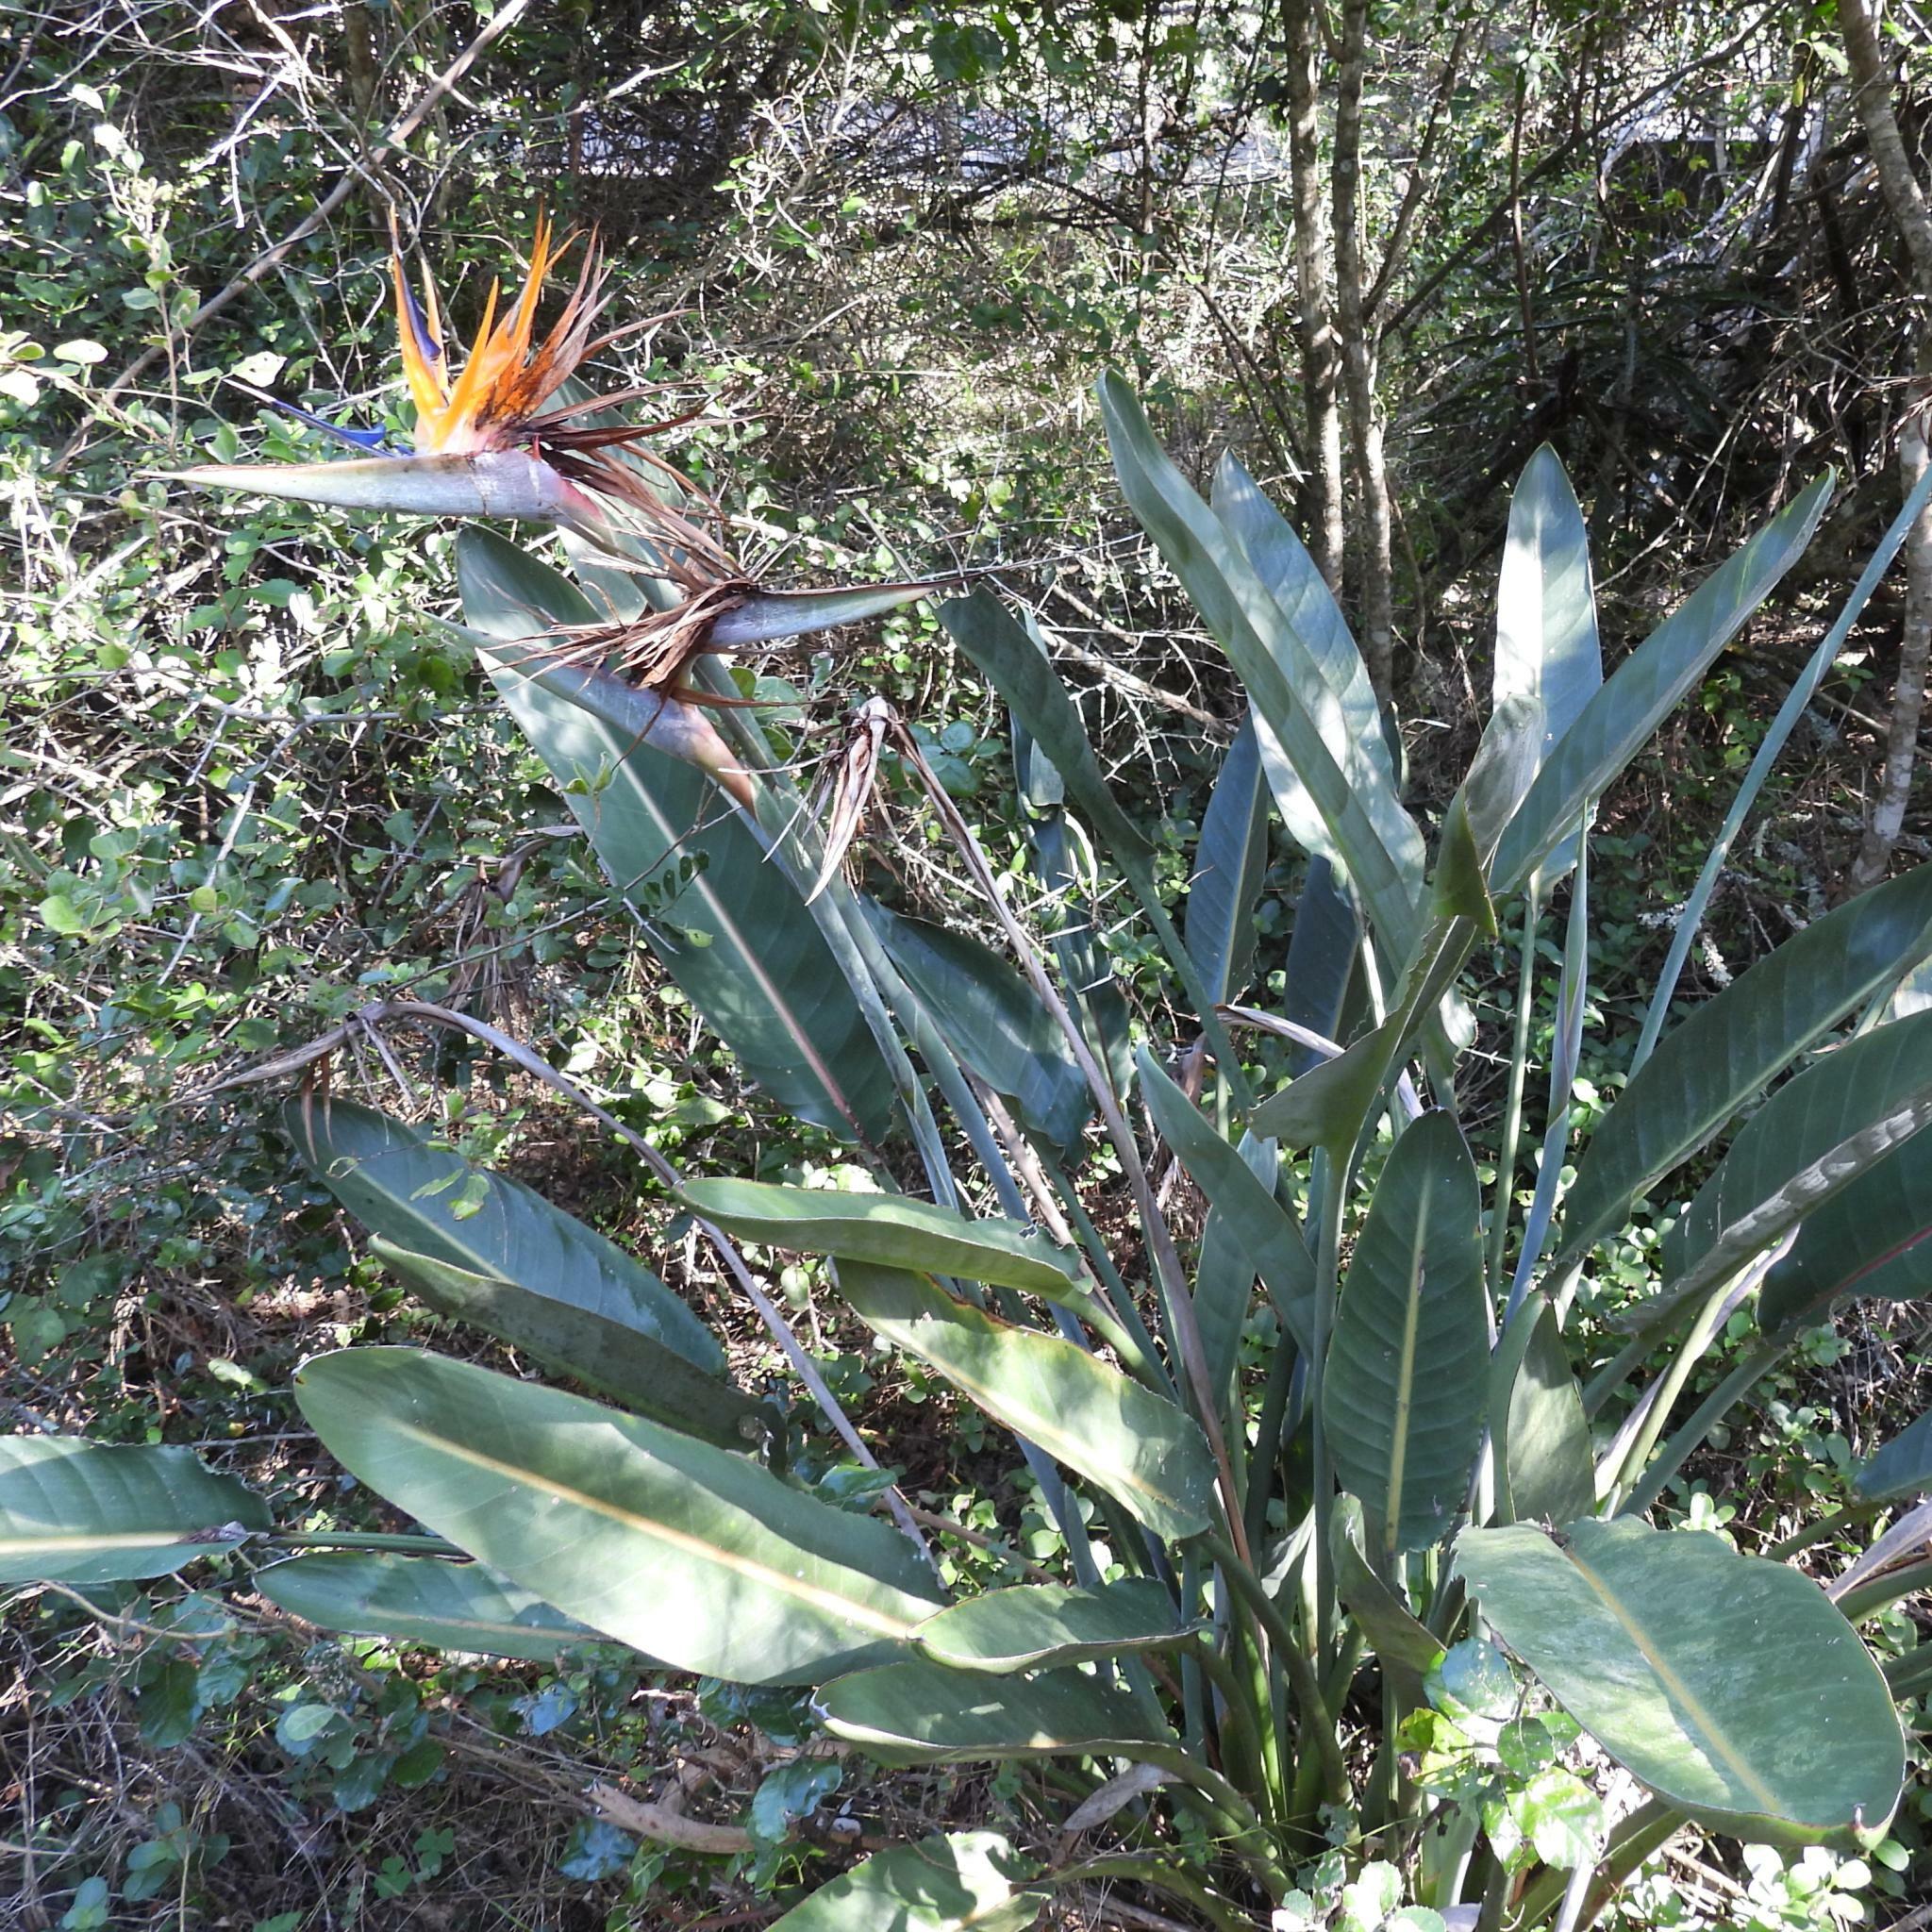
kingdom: Plantae
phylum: Tracheophyta
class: Liliopsida
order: Zingiberales
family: Strelitziaceae
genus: Strelitzia
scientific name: Strelitzia reginae
